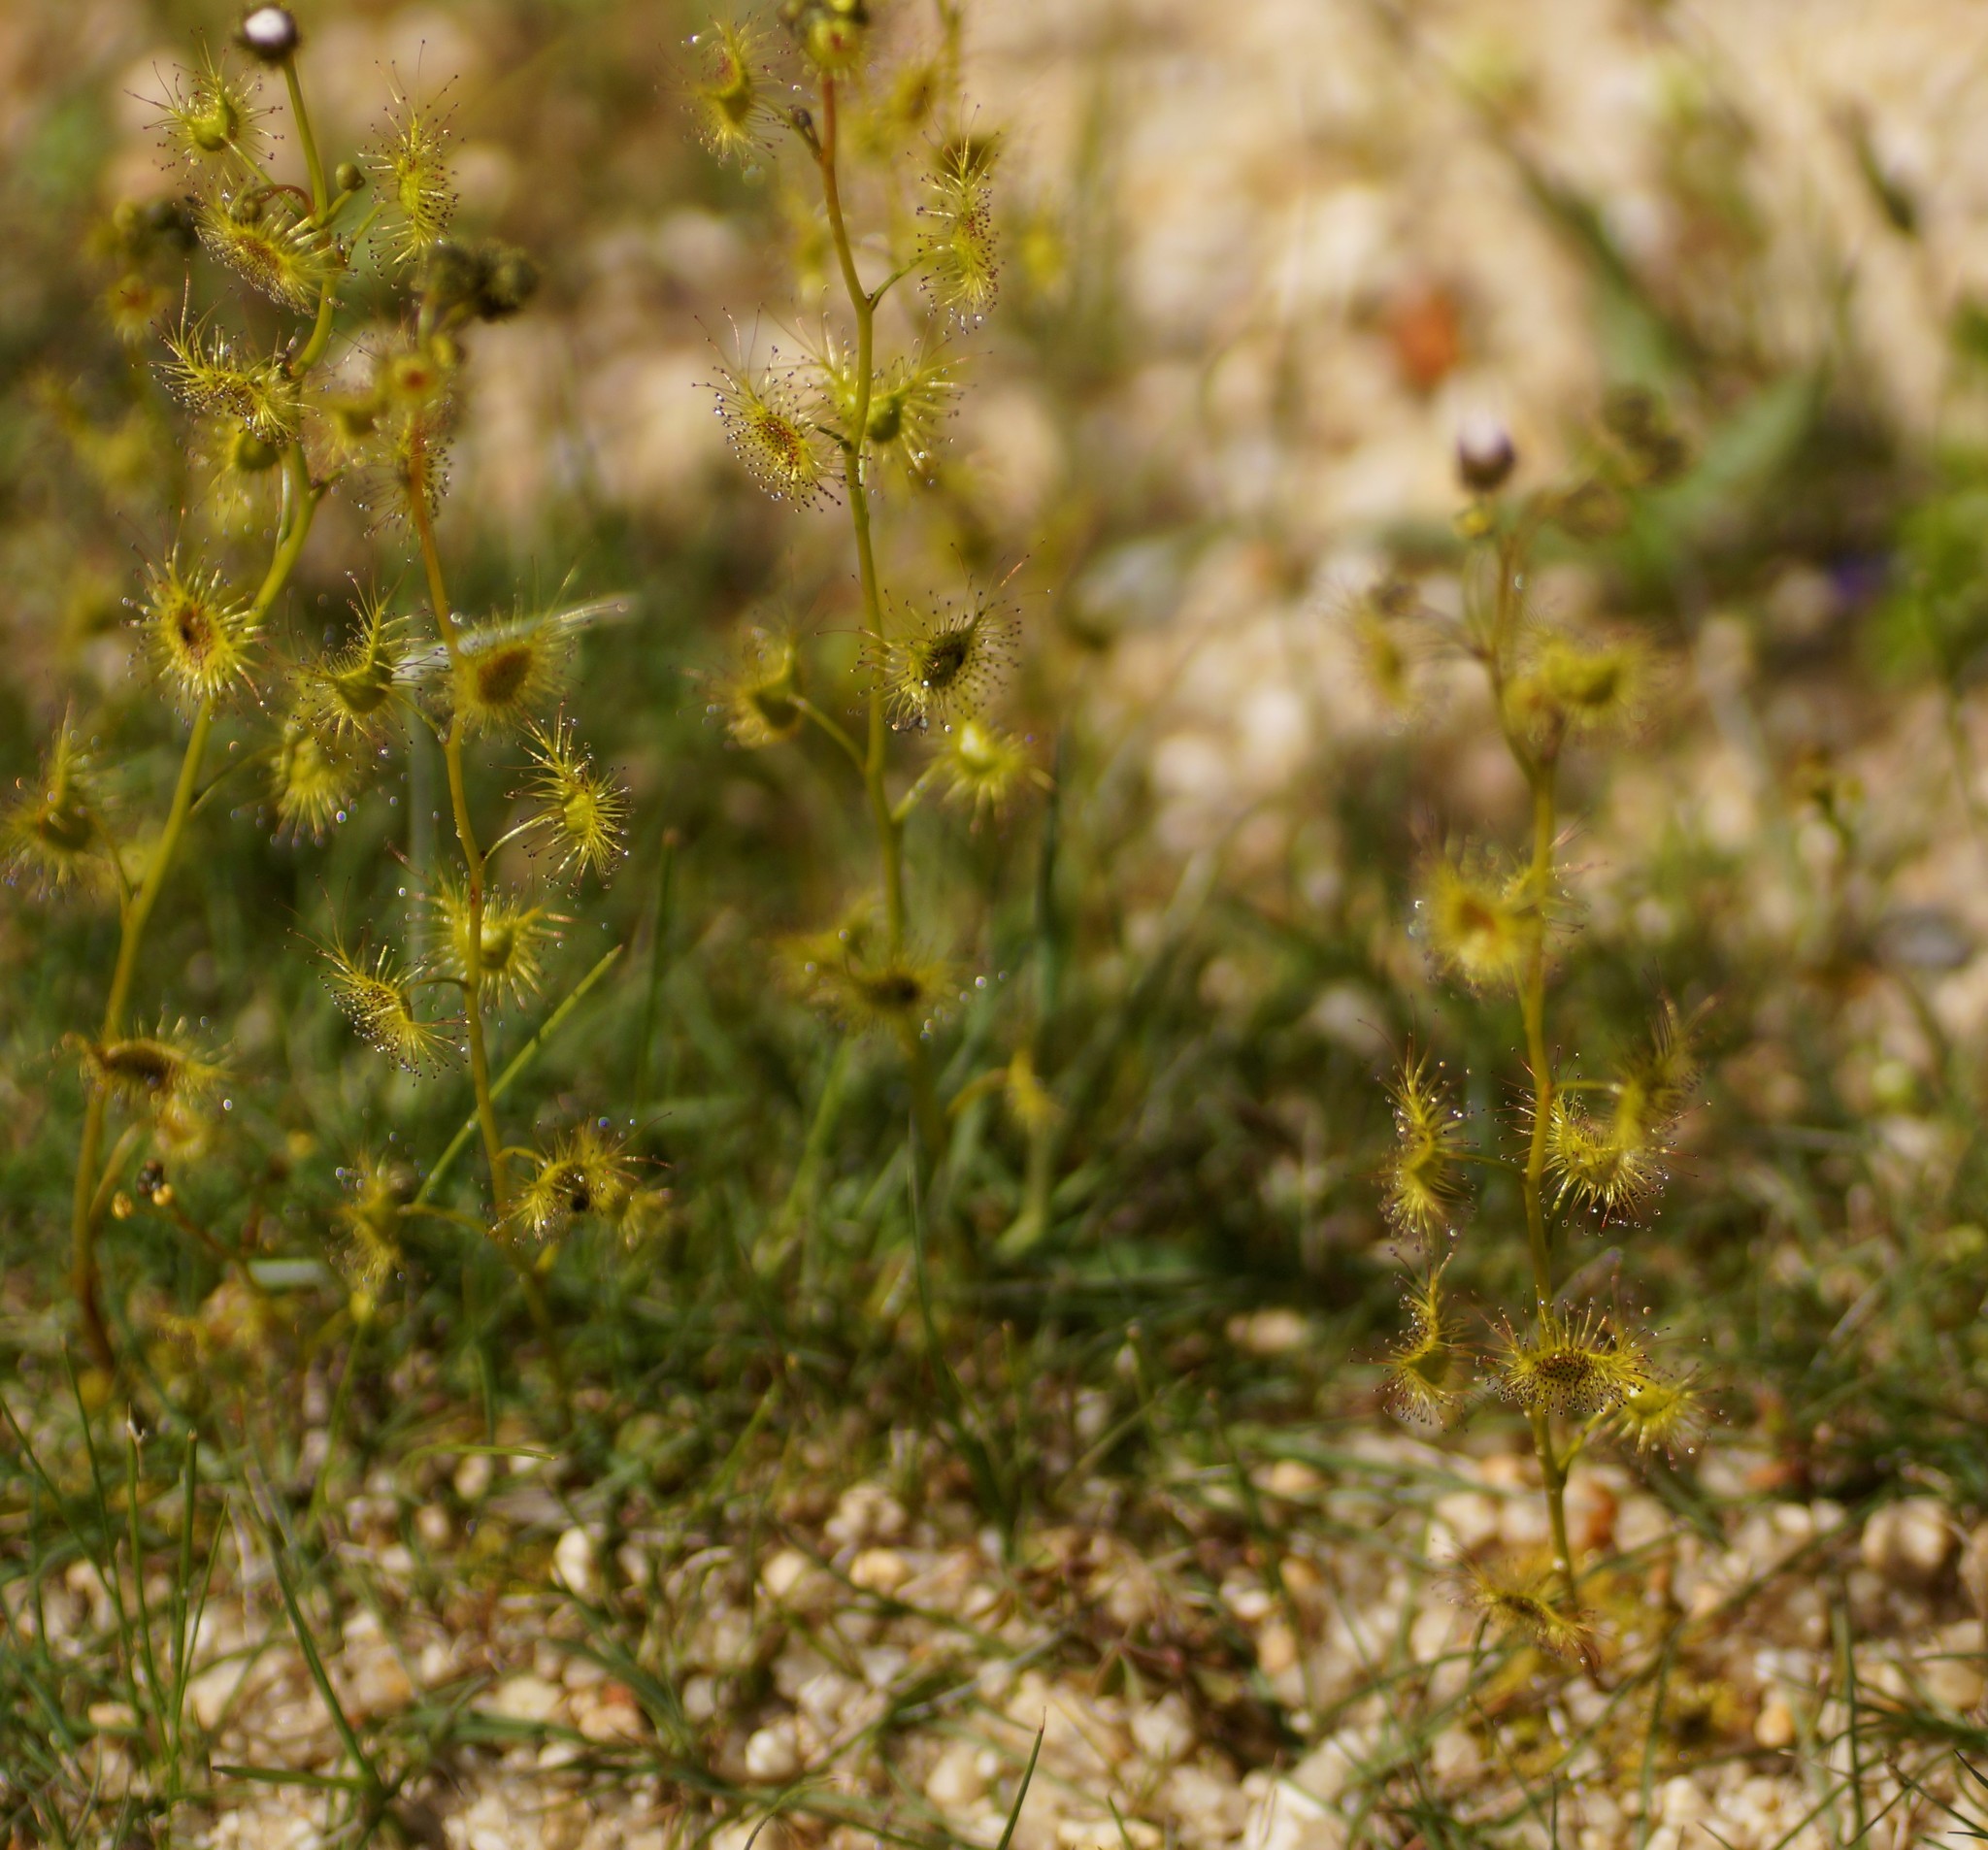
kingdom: Plantae
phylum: Tracheophyta
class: Magnoliopsida
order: Caryophyllales
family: Droseraceae
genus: Drosera
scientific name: Drosera gunniana
